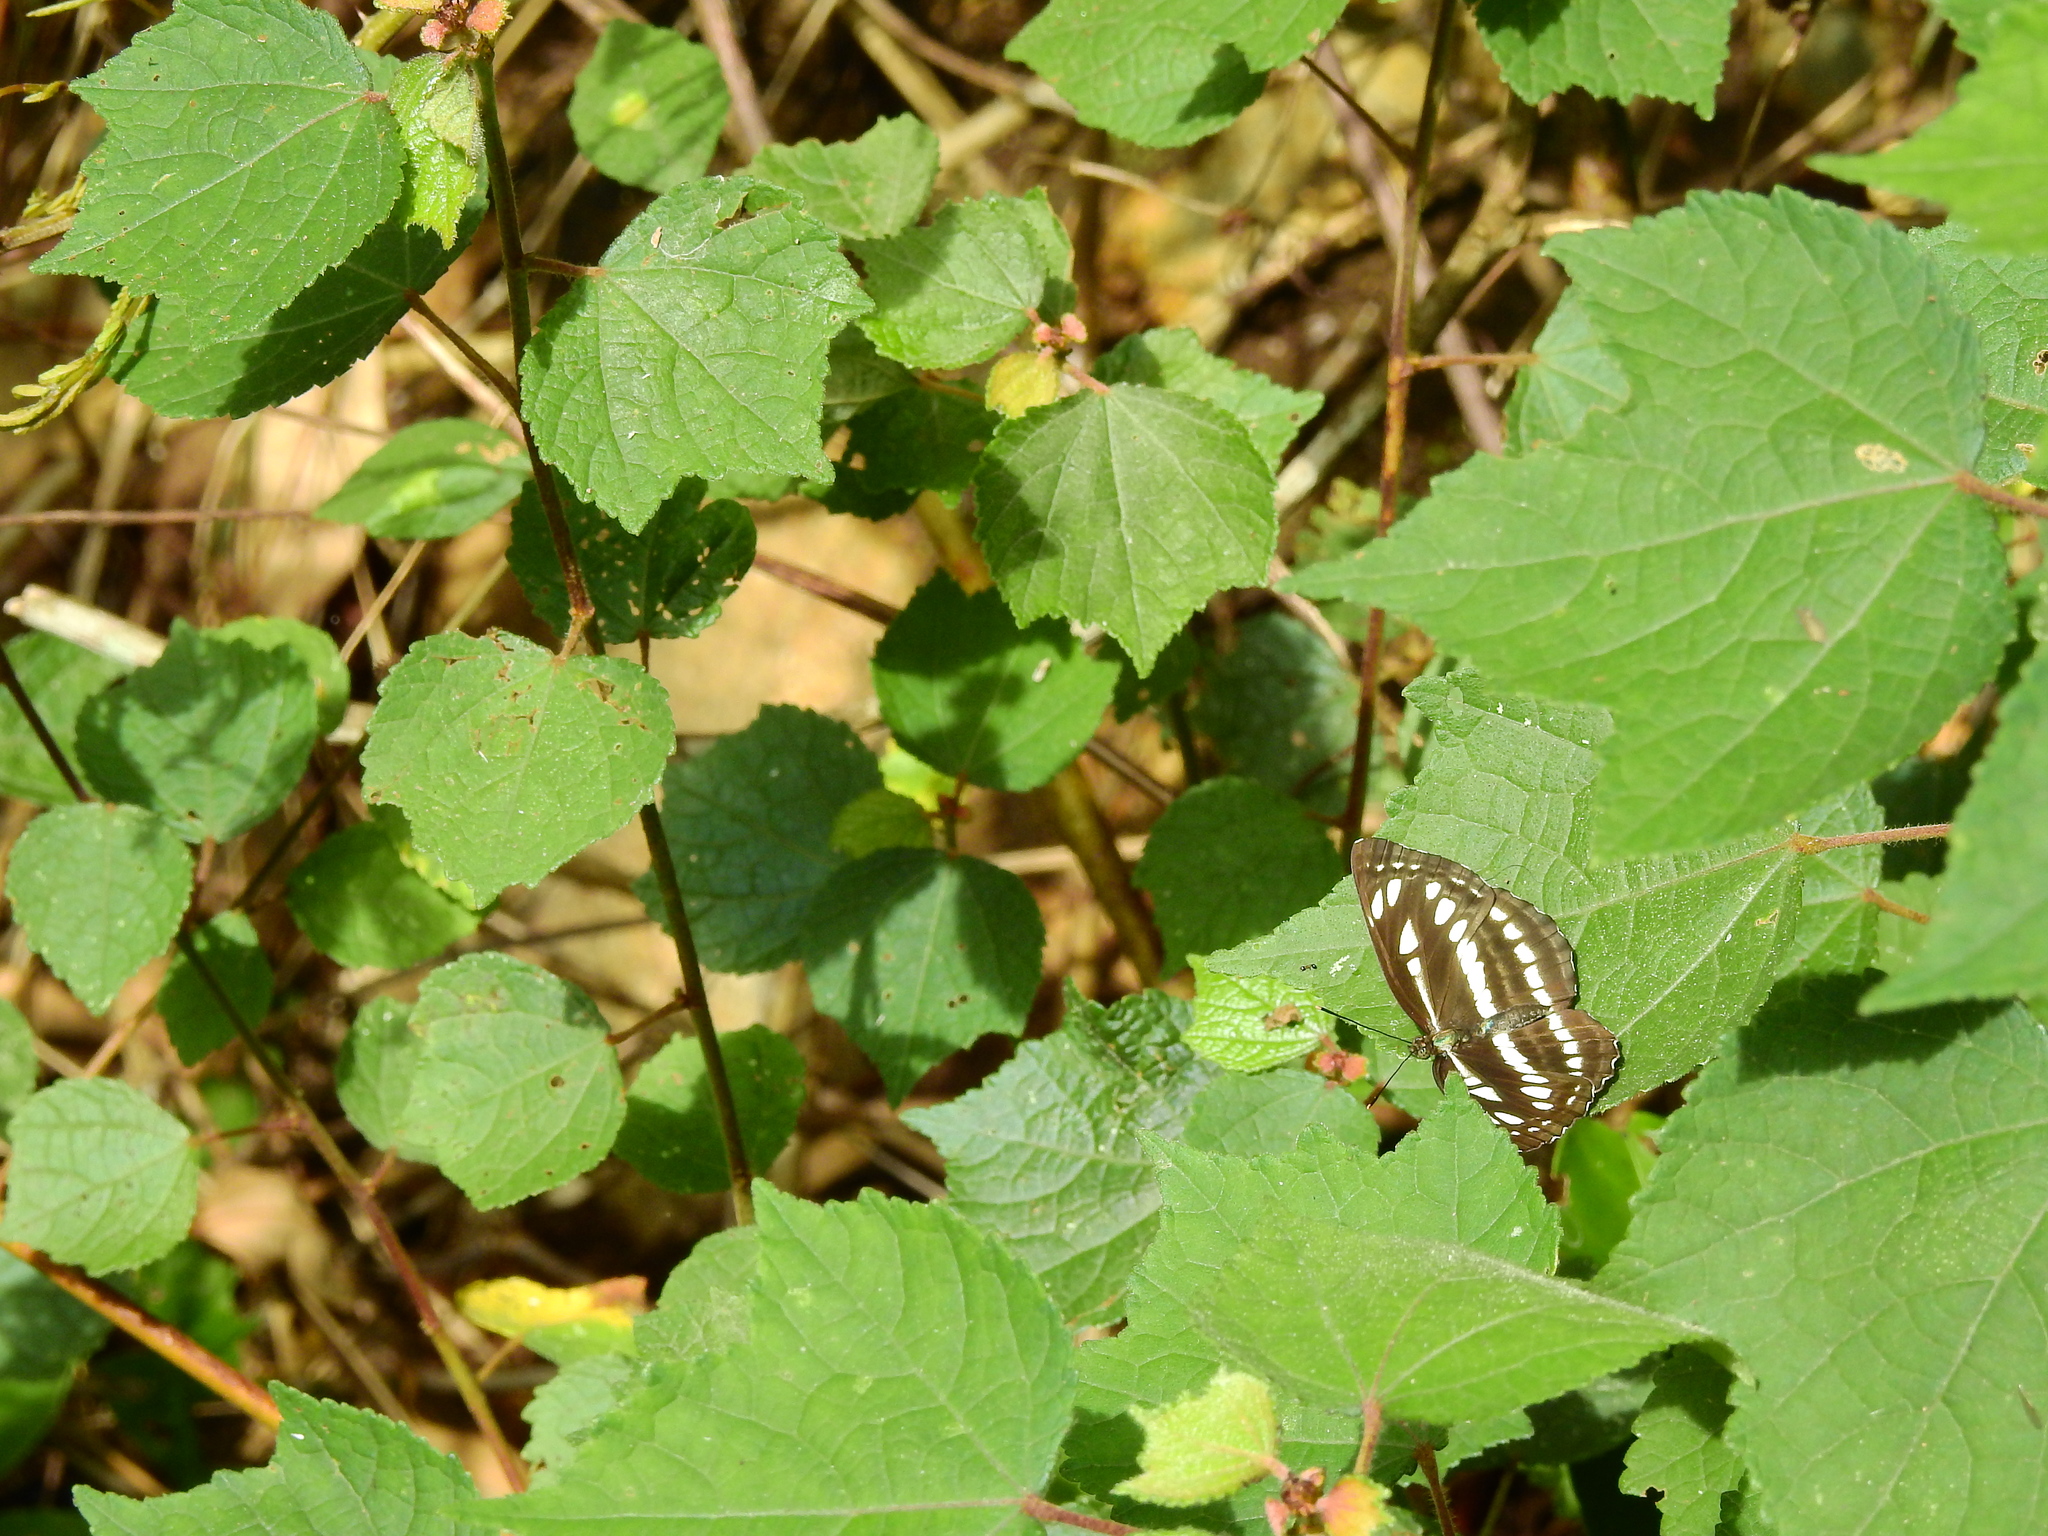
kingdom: Animalia
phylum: Arthropoda
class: Insecta
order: Lepidoptera
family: Nymphalidae
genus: Neptis
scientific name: Neptis hylas
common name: Common sailer
